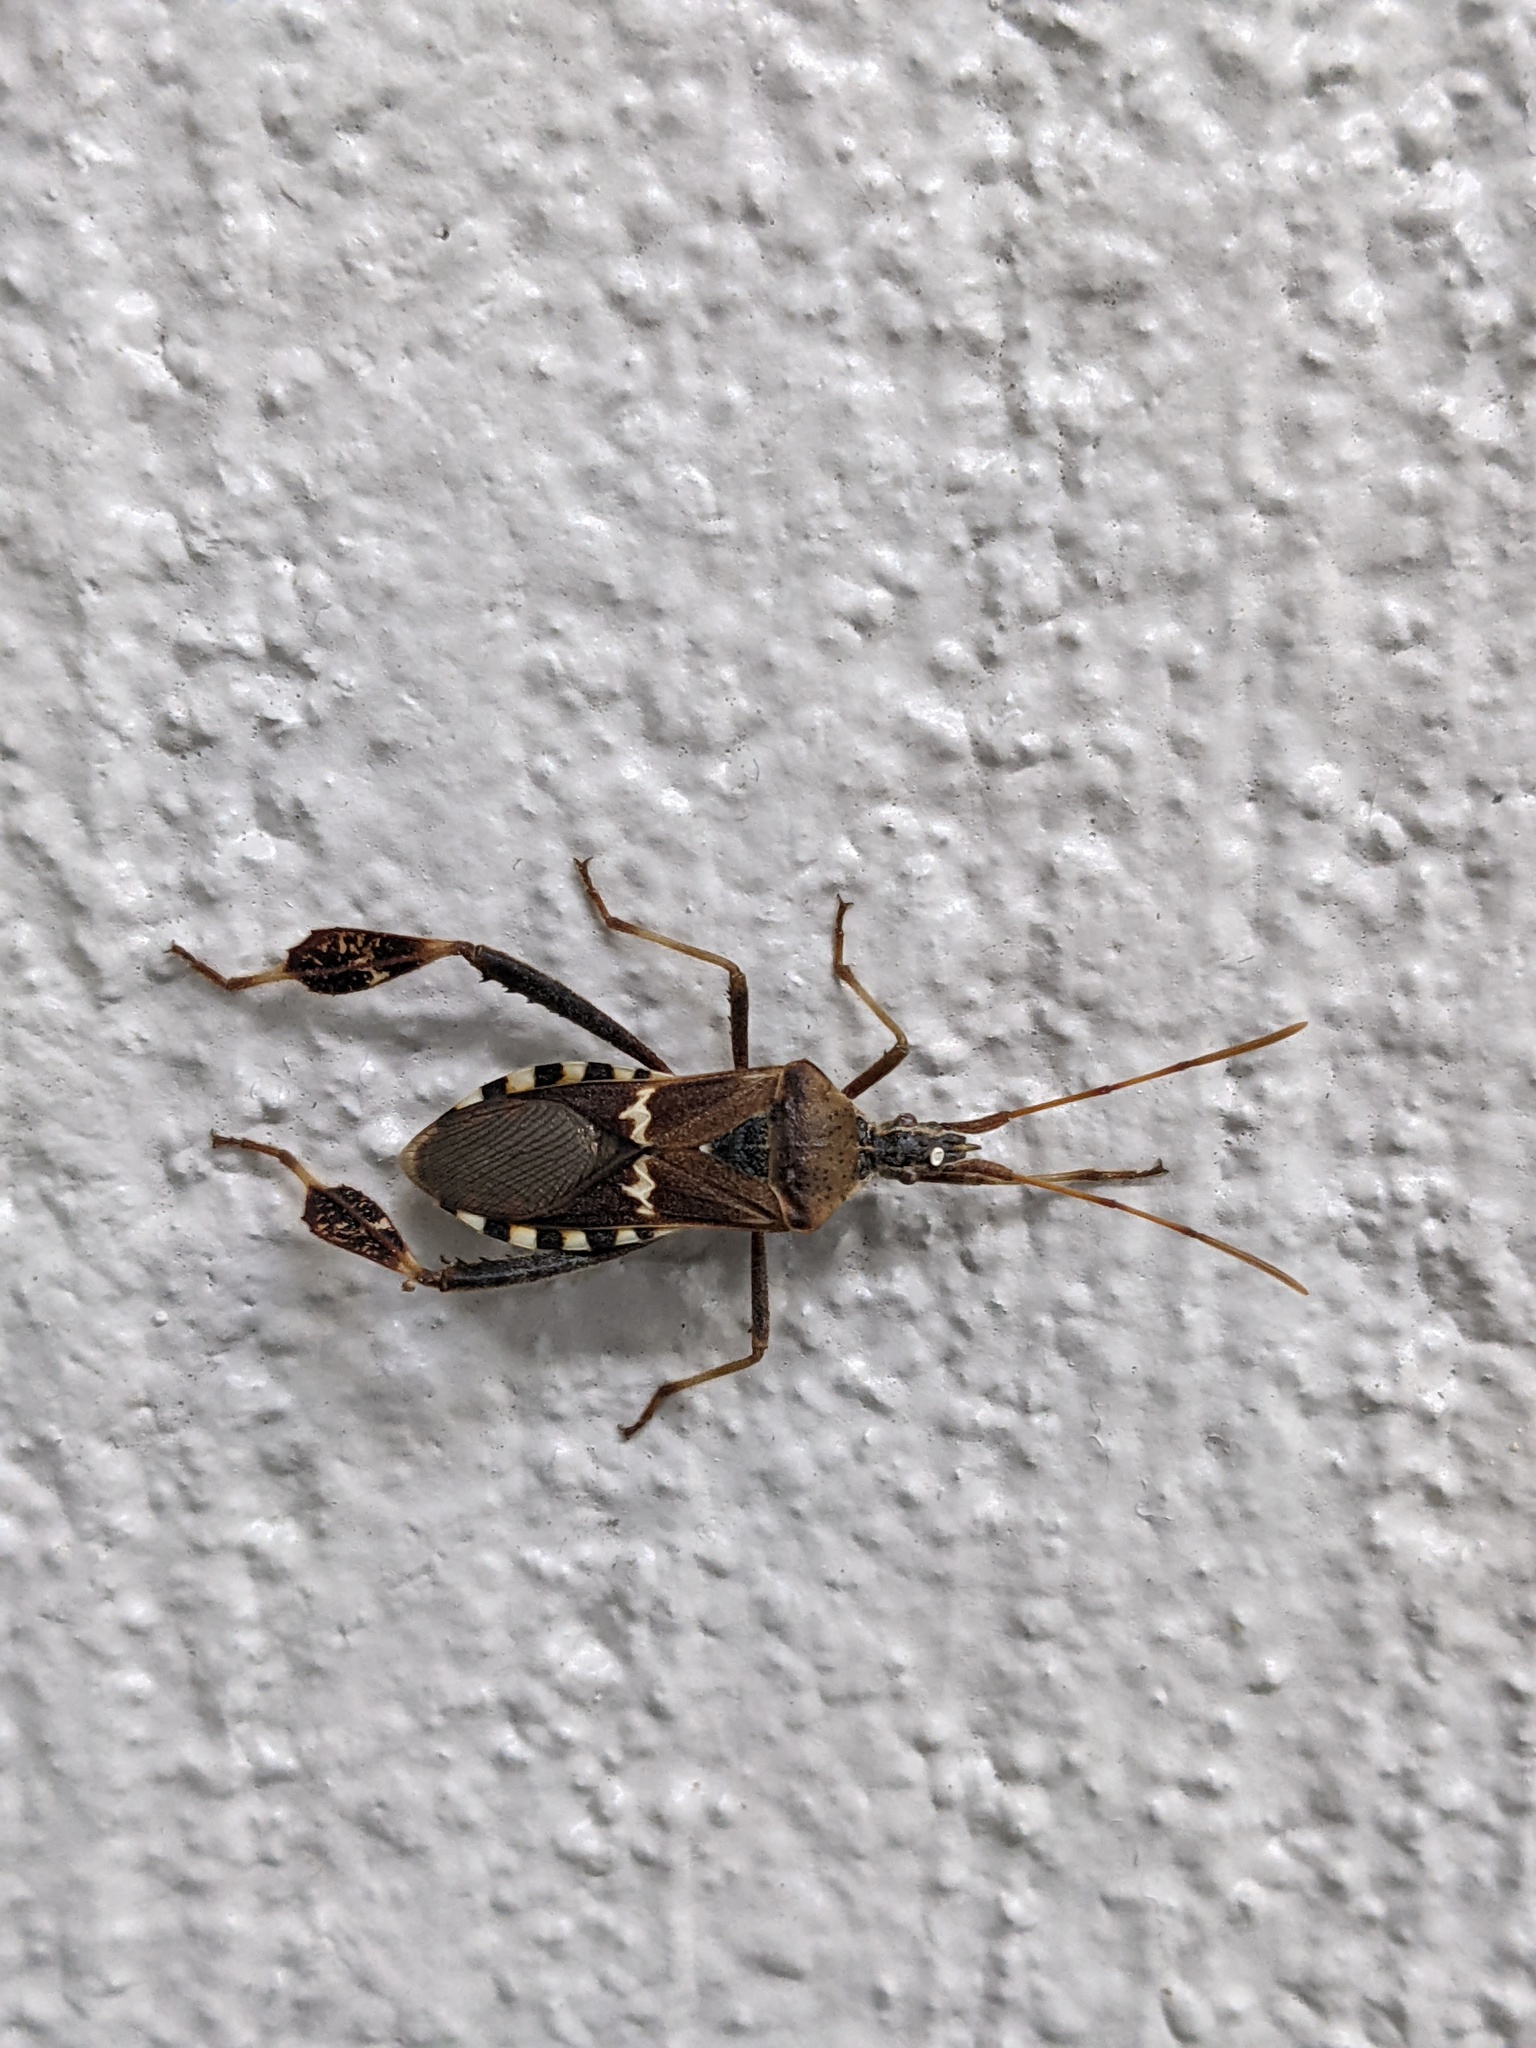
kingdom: Animalia
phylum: Arthropoda
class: Insecta
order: Hemiptera
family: Coreidae
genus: Leptoglossus
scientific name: Leptoglossus clypealis
